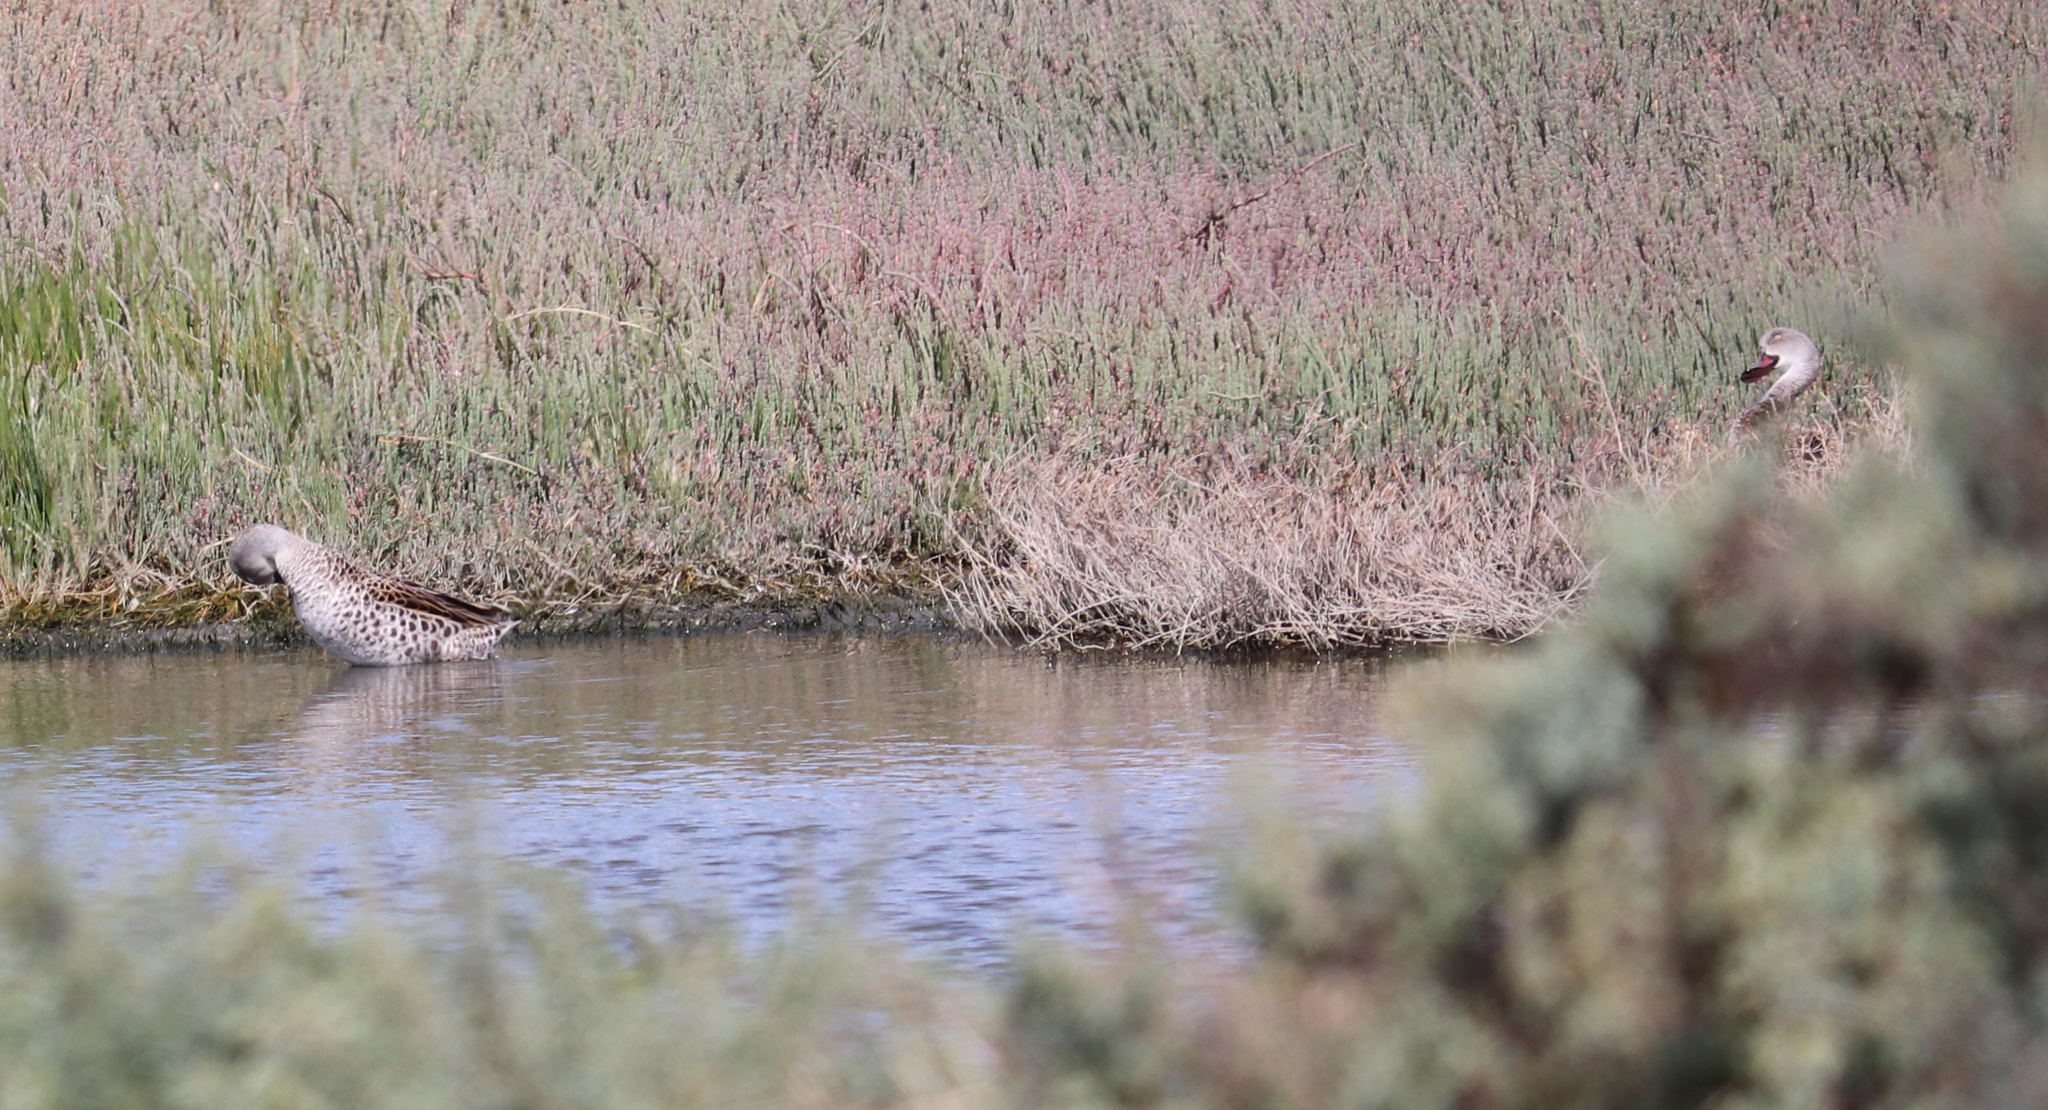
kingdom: Animalia
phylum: Chordata
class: Aves
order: Anseriformes
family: Anatidae
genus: Anas
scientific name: Anas capensis
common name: Cape teal
